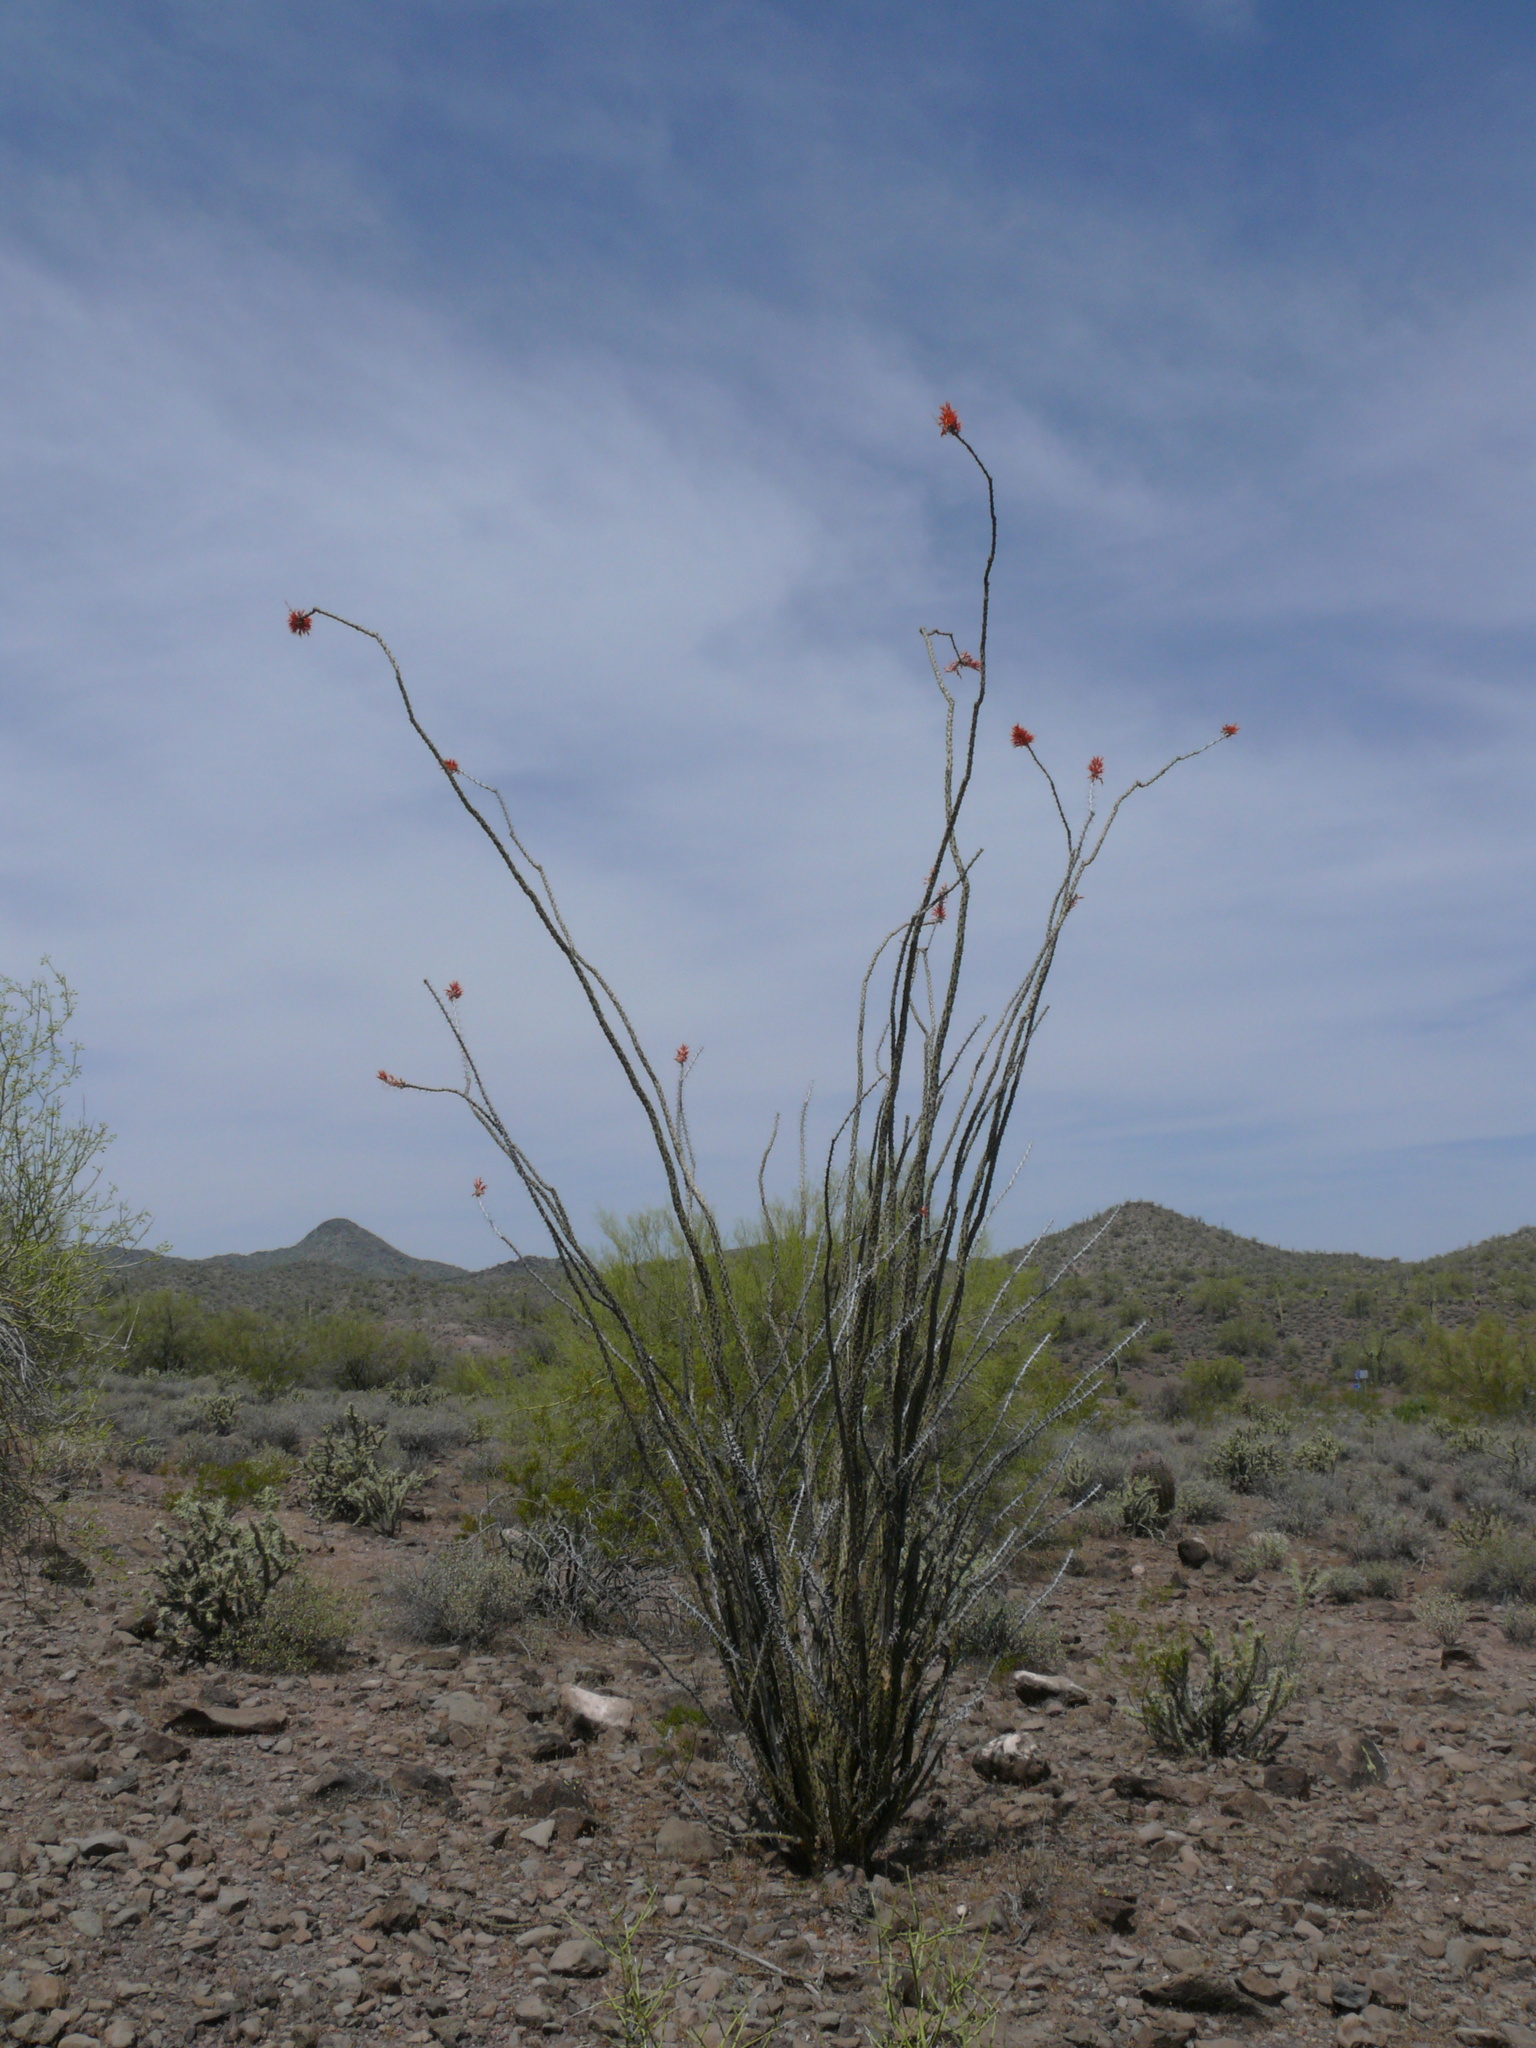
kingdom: Plantae
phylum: Tracheophyta
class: Magnoliopsida
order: Ericales
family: Fouquieriaceae
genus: Fouquieria
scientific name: Fouquieria splendens
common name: Vine-cactus
